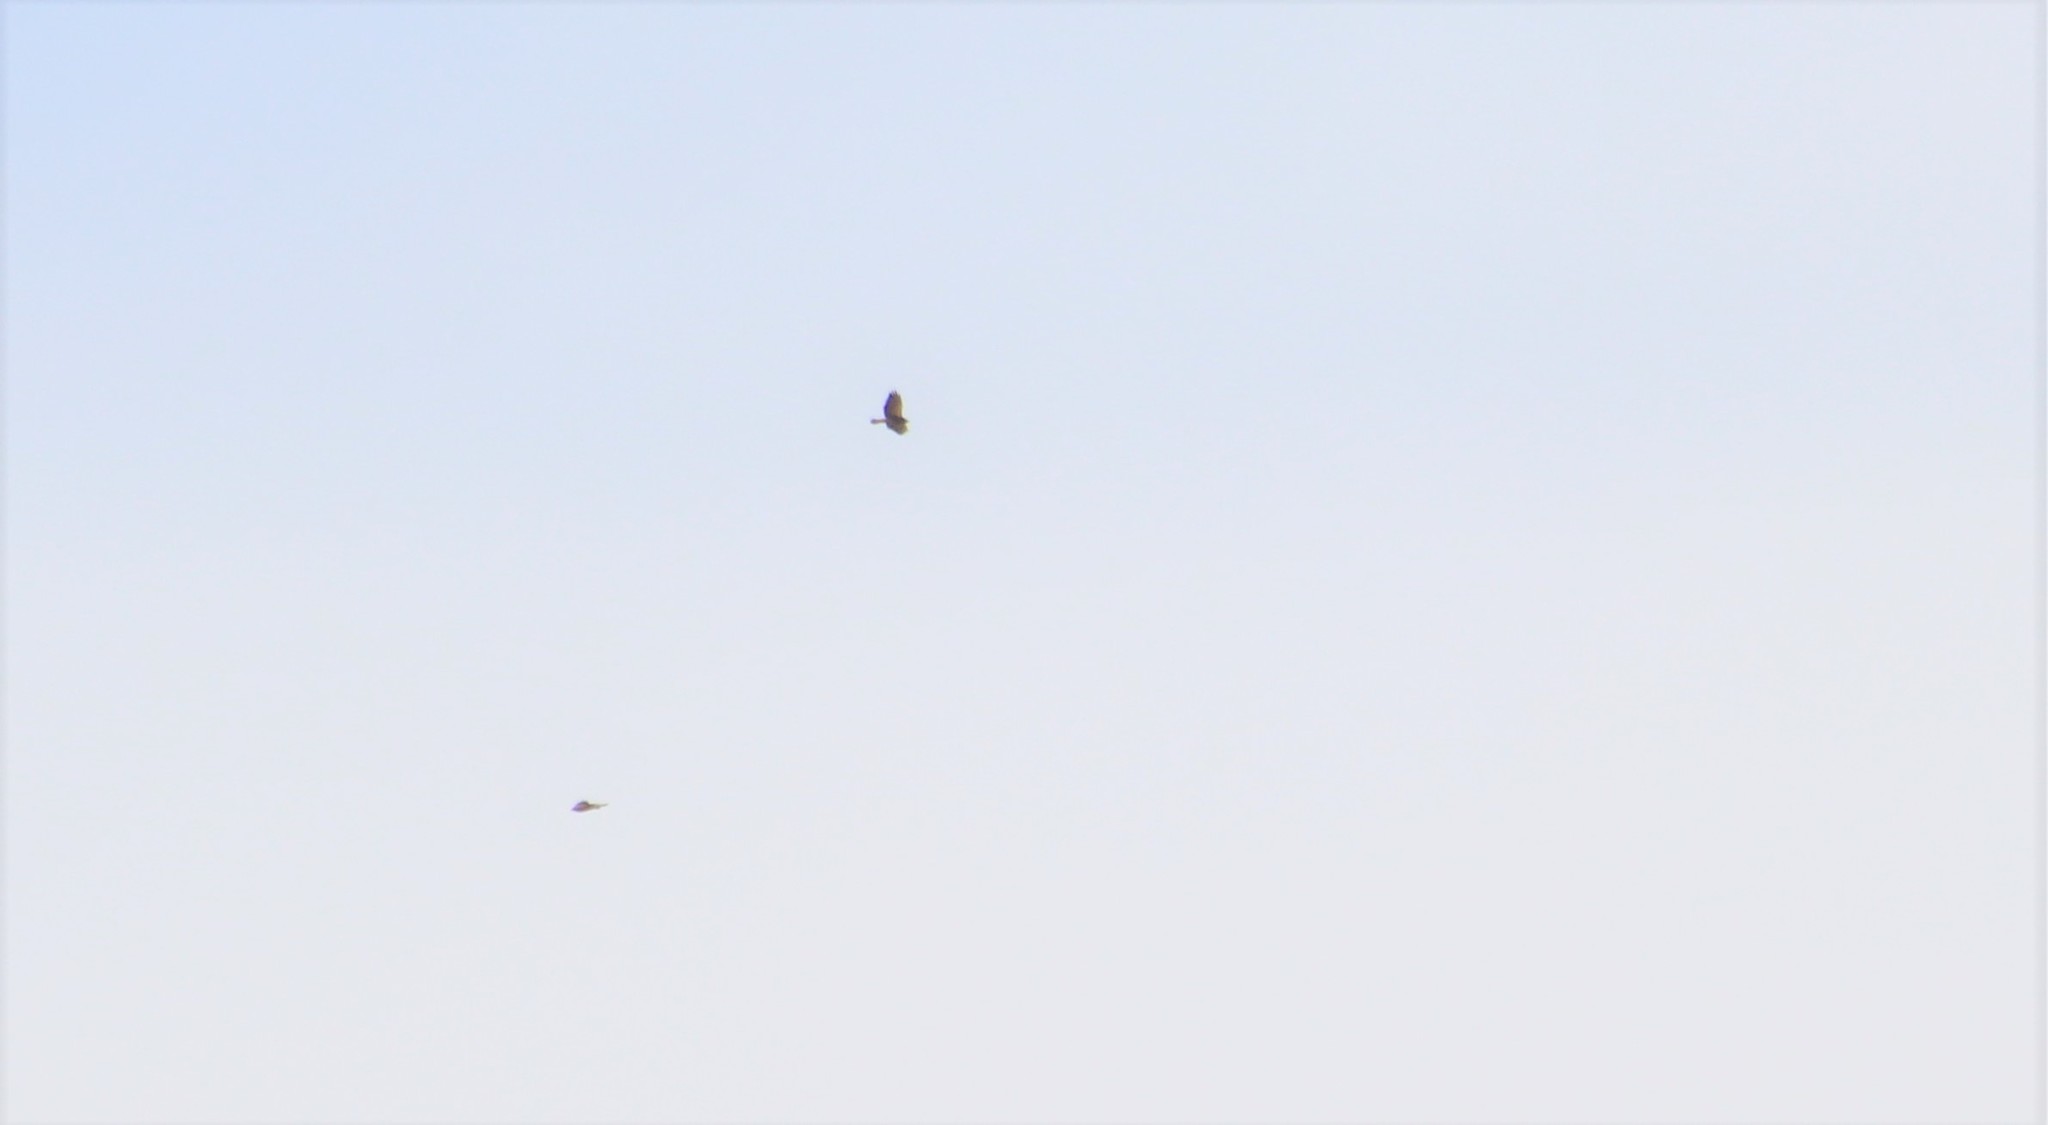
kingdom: Animalia
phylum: Chordata
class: Aves
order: Accipitriformes
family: Accipitridae
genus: Buteo
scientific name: Buteo swainsoni
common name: Swainson's hawk
